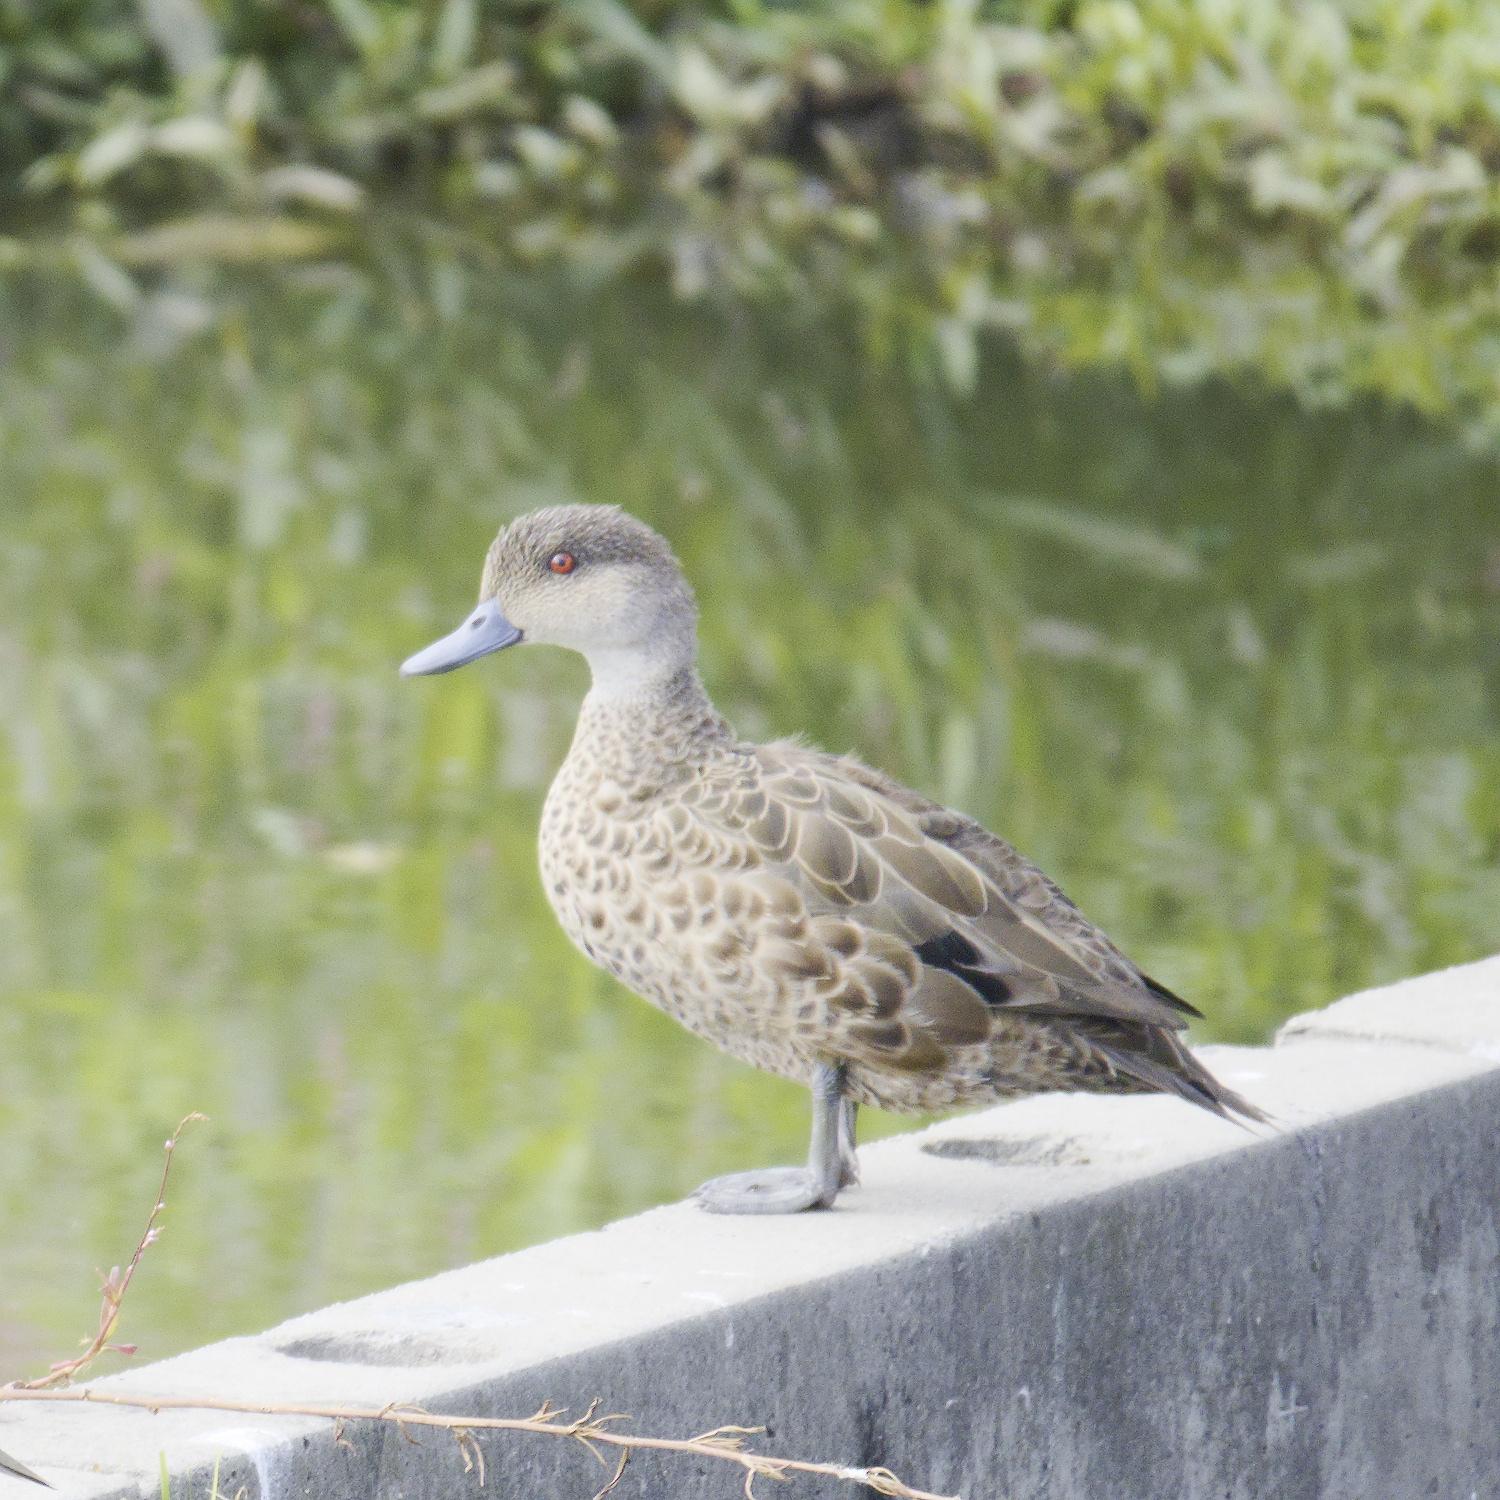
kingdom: Animalia
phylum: Chordata
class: Aves
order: Anseriformes
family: Anatidae
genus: Anas
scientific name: Anas gracilis
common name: Grey teal
